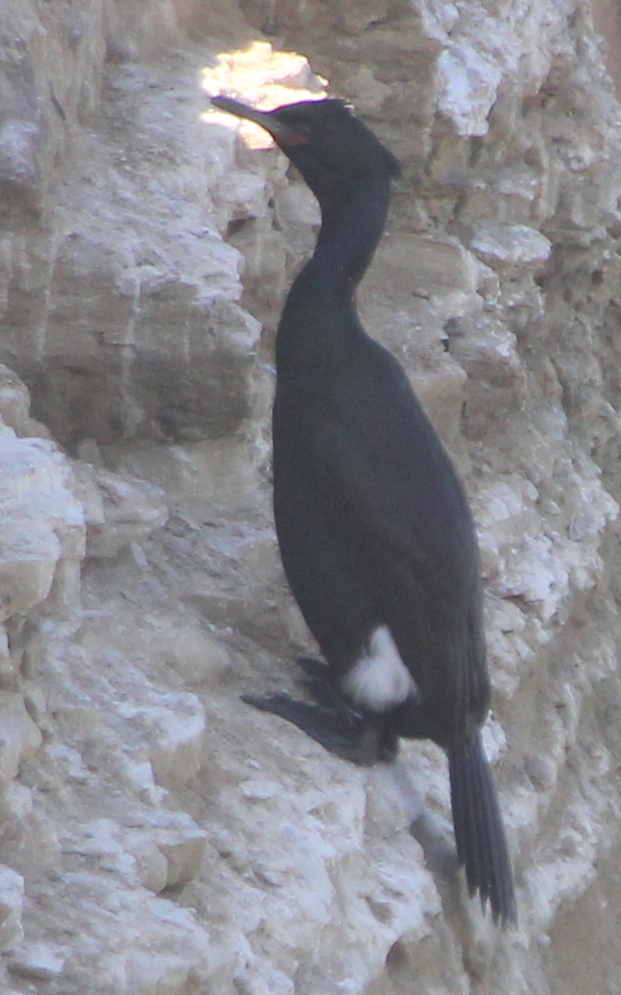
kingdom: Animalia
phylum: Chordata
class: Aves
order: Suliformes
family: Phalacrocoracidae
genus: Phalacrocorax
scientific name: Phalacrocorax pelagicus
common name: Pelagic cormorant
